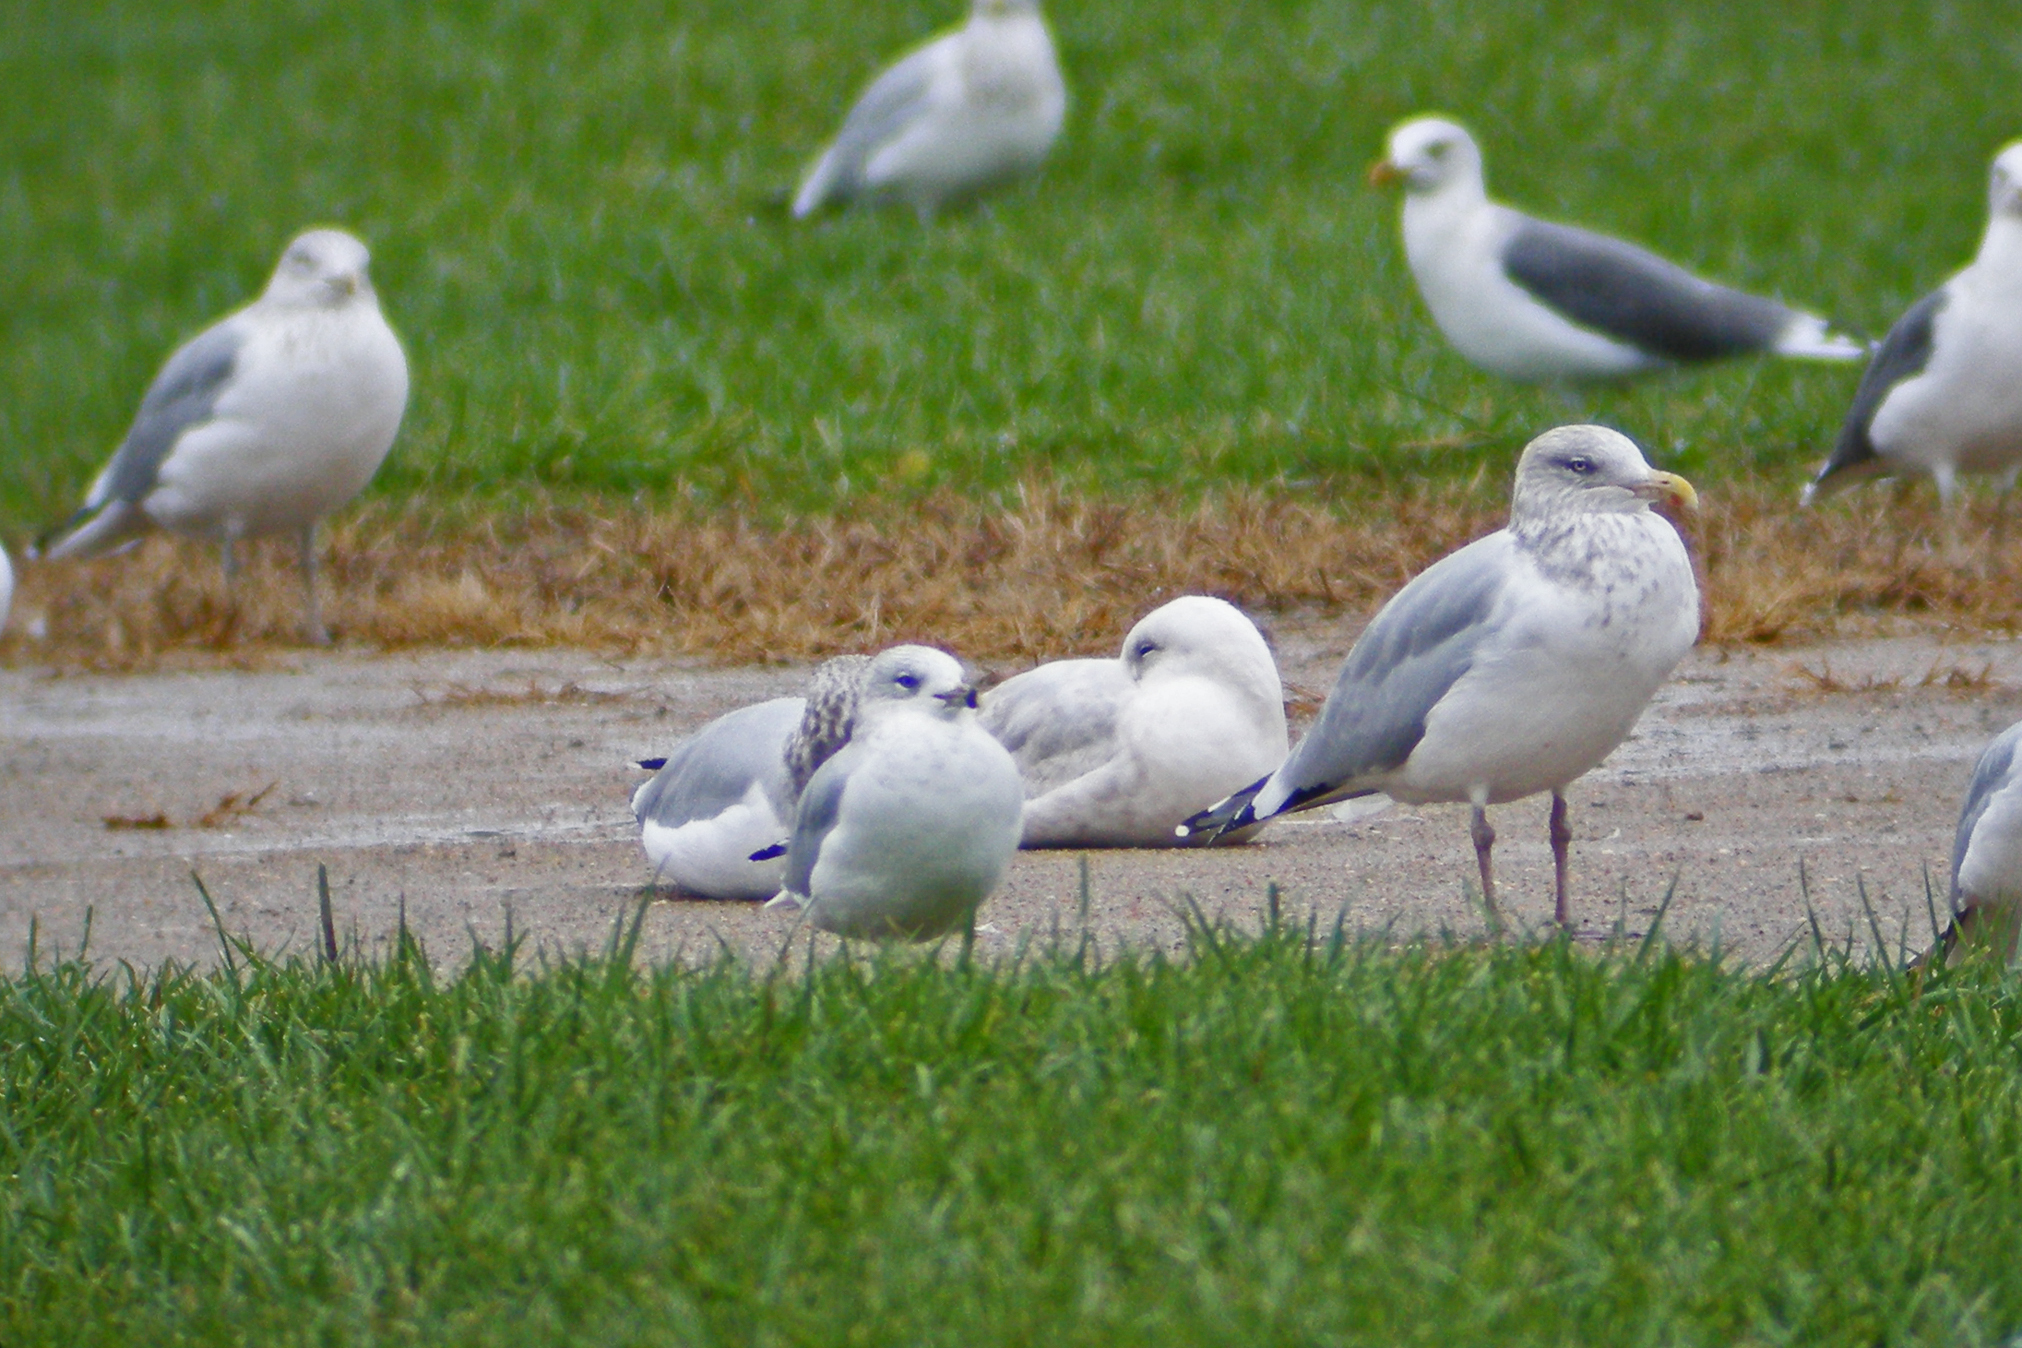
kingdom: Animalia
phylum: Chordata
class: Aves
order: Charadriiformes
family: Laridae
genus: Larus
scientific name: Larus delawarensis
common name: Ring-billed gull
